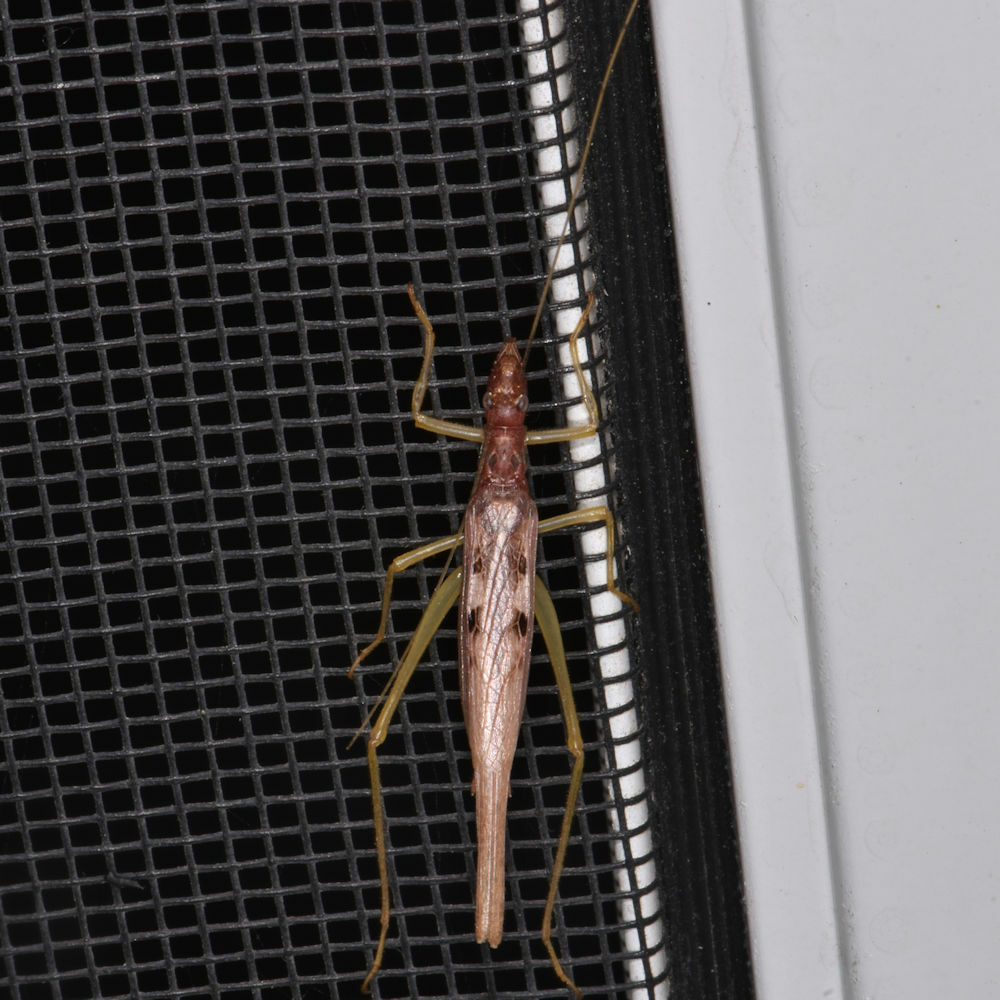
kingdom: Animalia
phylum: Arthropoda
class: Insecta
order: Orthoptera
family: Gryllidae
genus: Neoxabea
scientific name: Neoxabea bipunctata
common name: Two-spotted tree cricket
